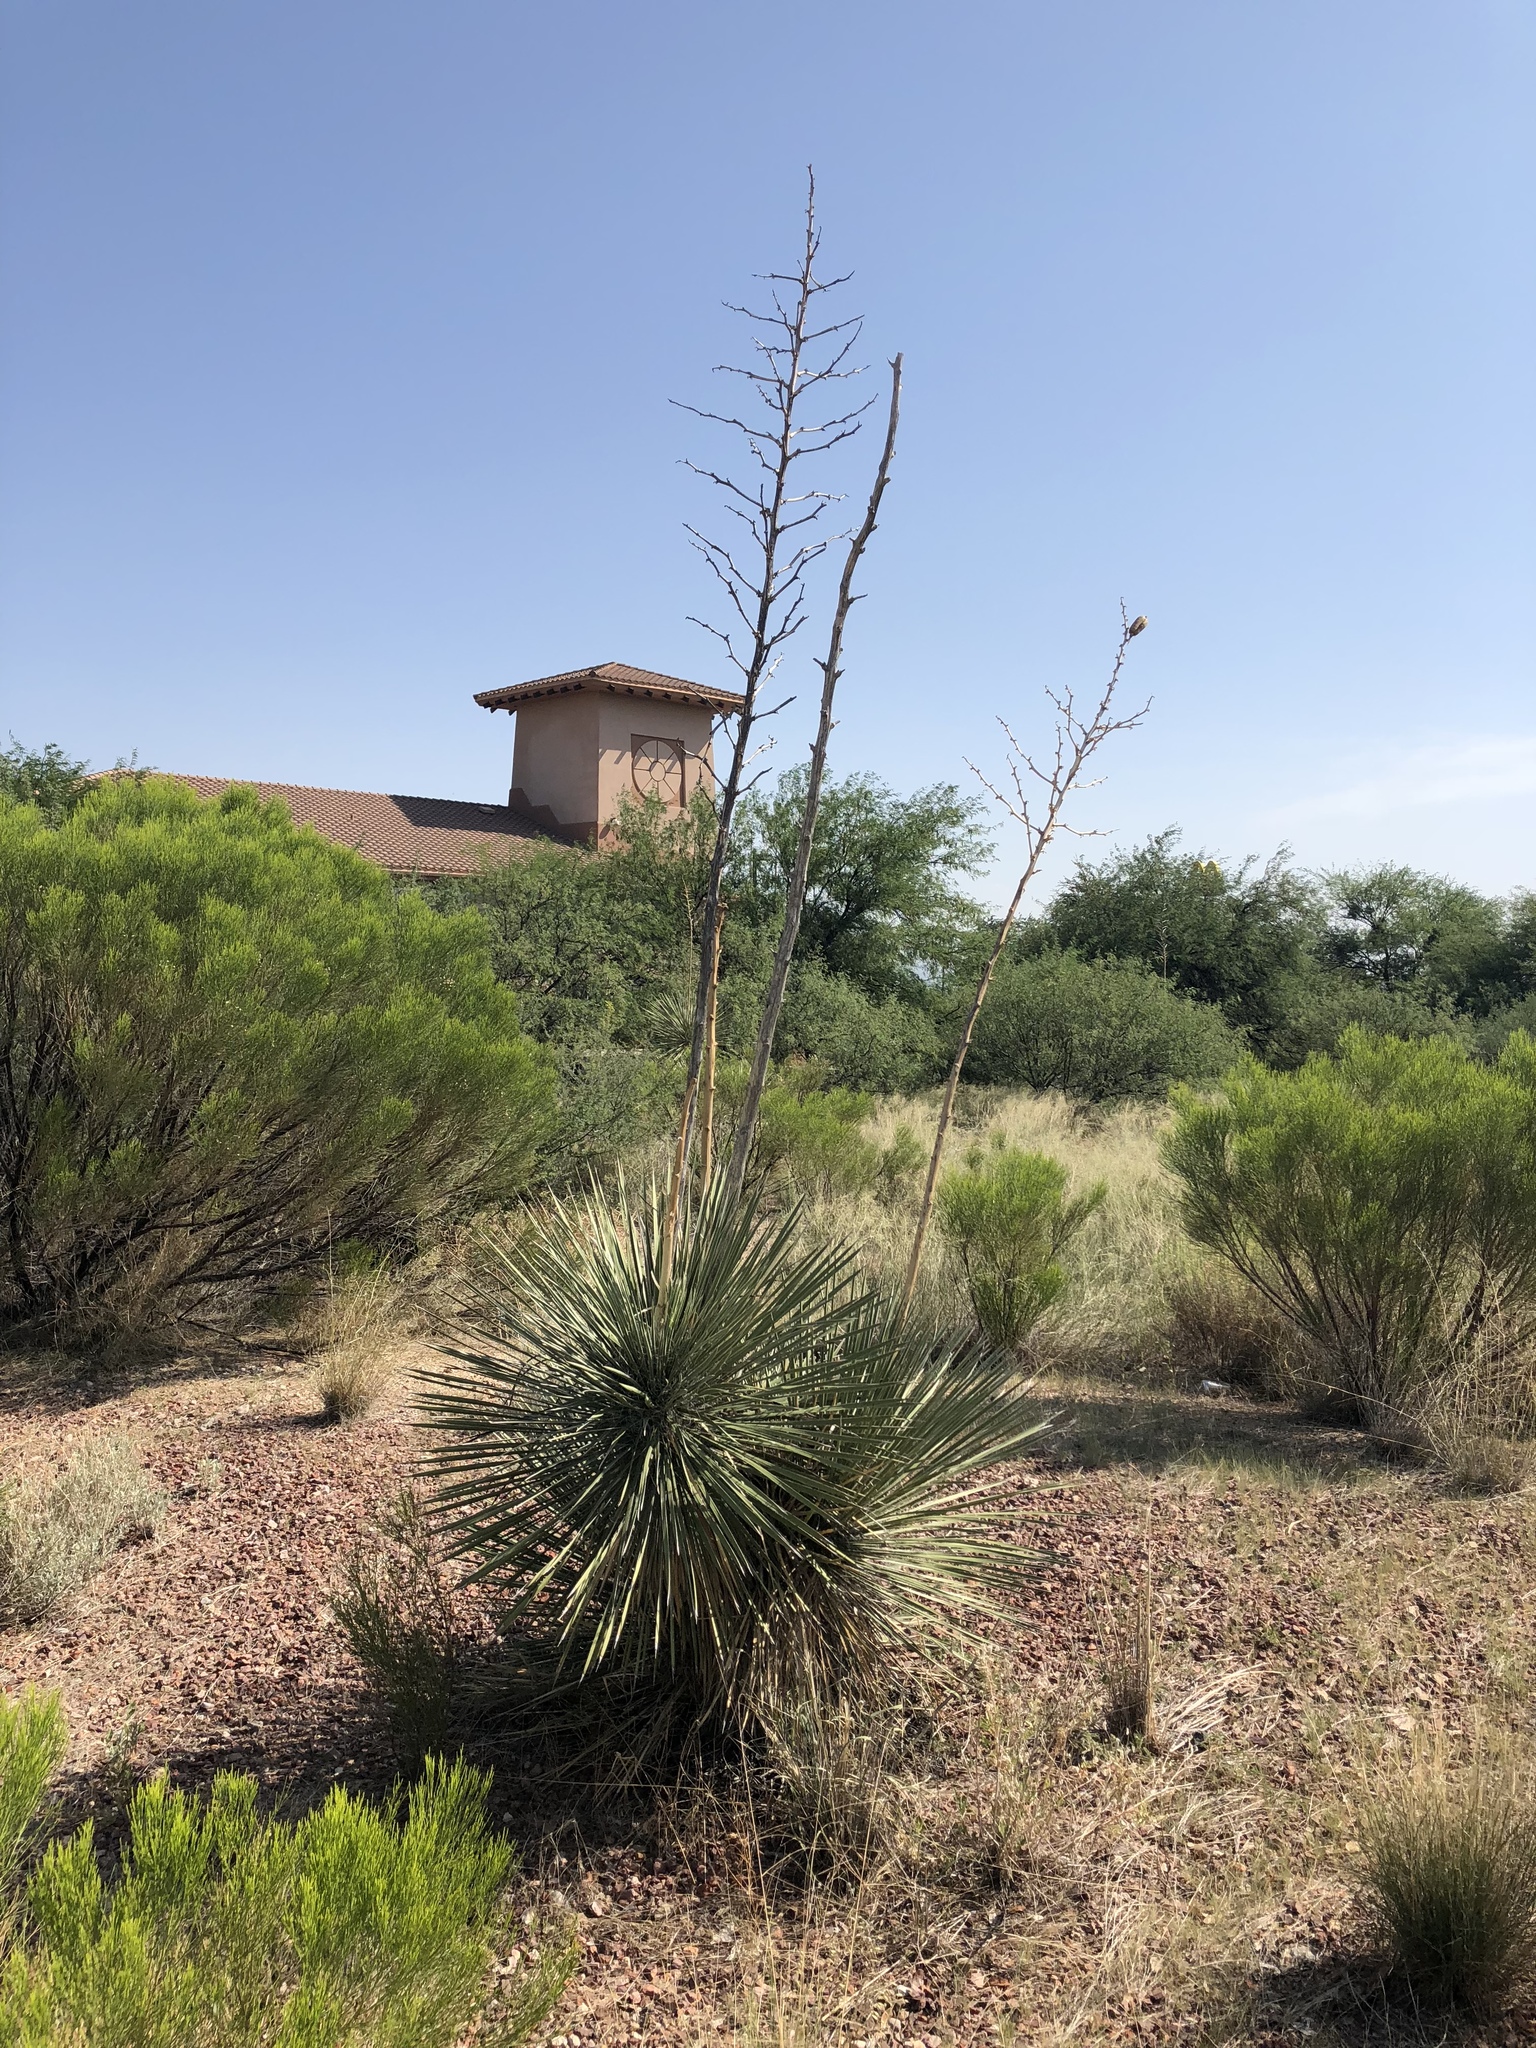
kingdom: Plantae
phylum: Tracheophyta
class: Liliopsida
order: Asparagales
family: Asparagaceae
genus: Yucca
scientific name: Yucca elata
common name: Palmella
